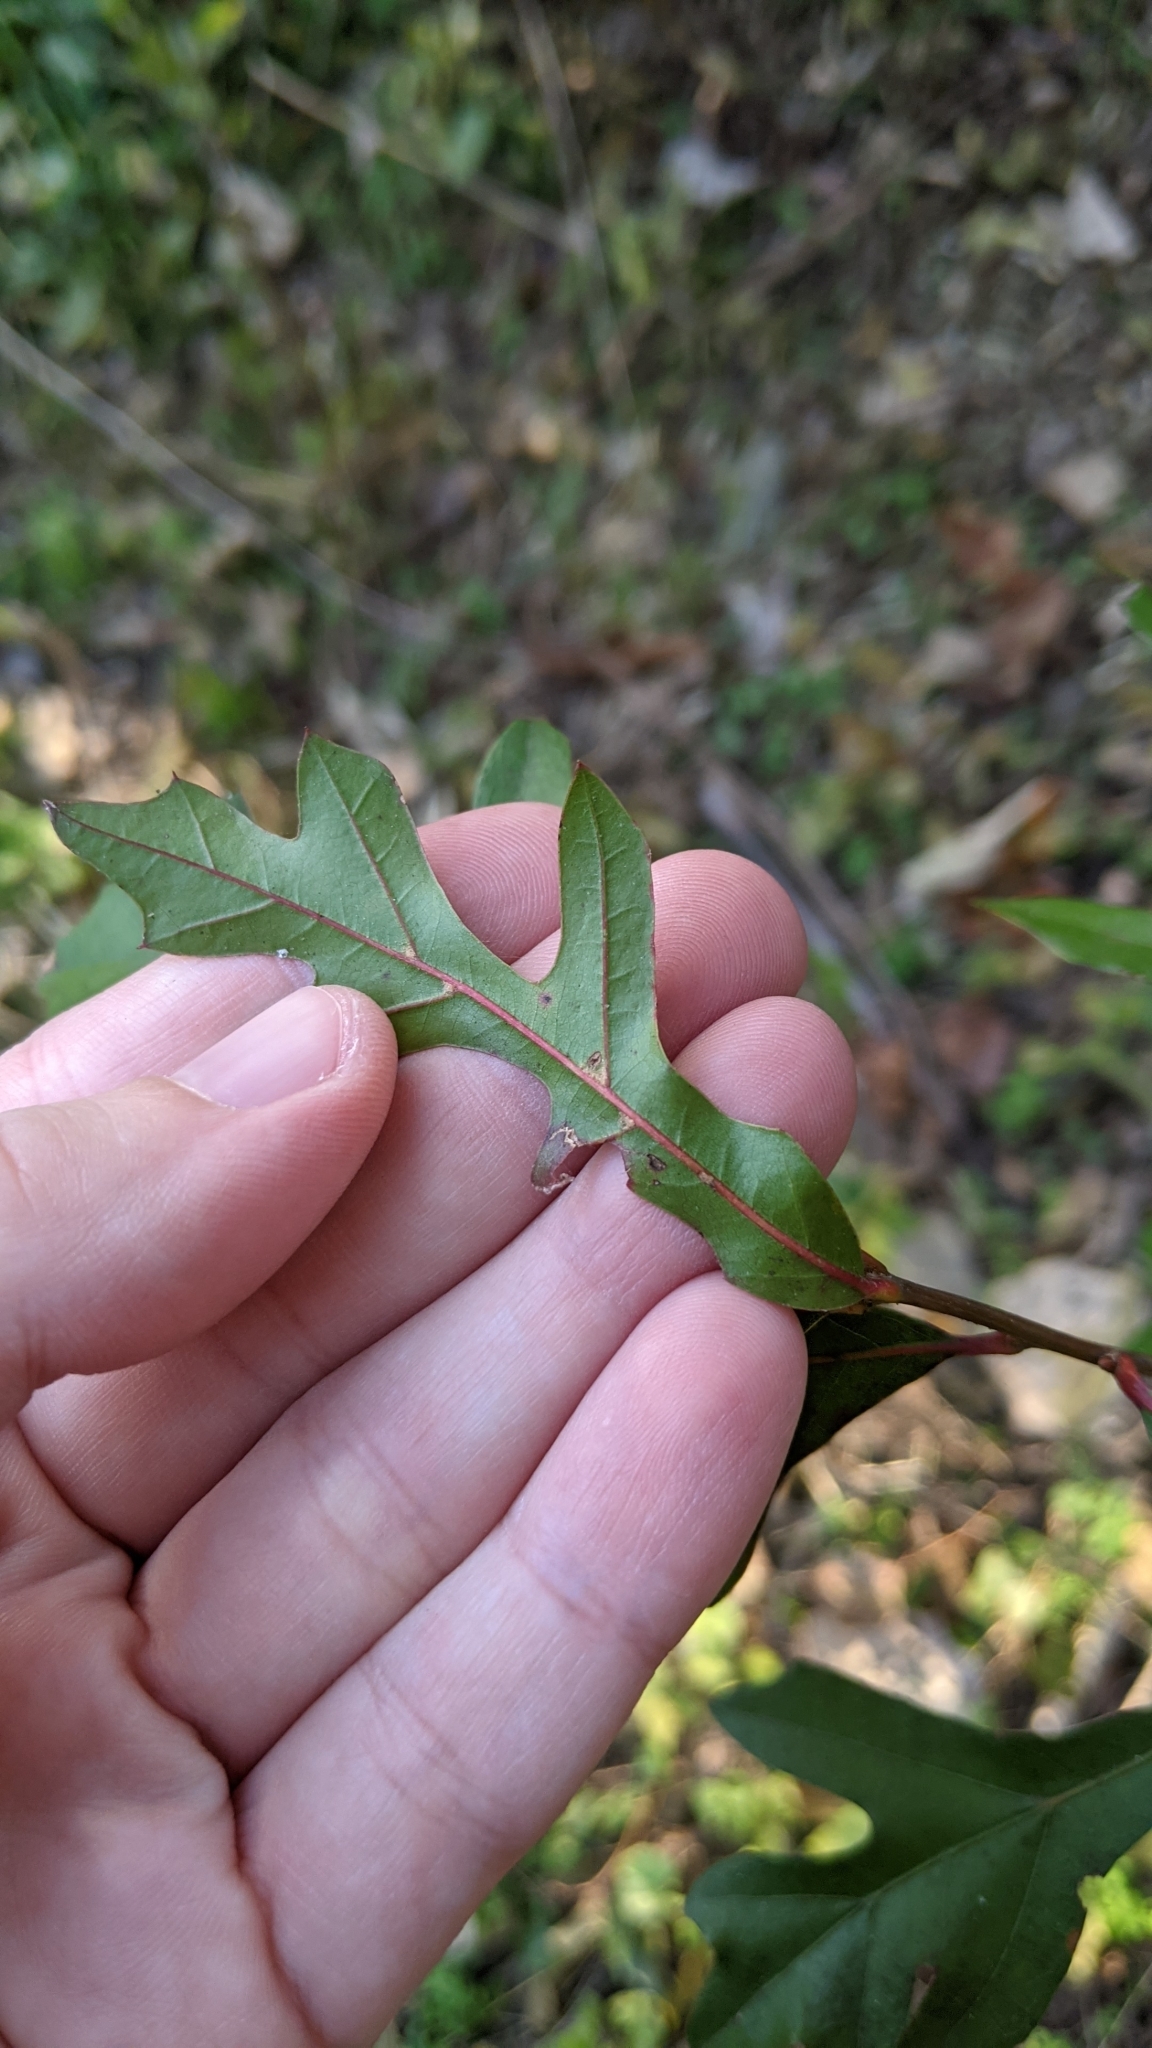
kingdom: Plantae
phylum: Tracheophyta
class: Magnoliopsida
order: Fagales
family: Fagaceae
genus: Quercus
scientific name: Quercus nigra
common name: Water oak
